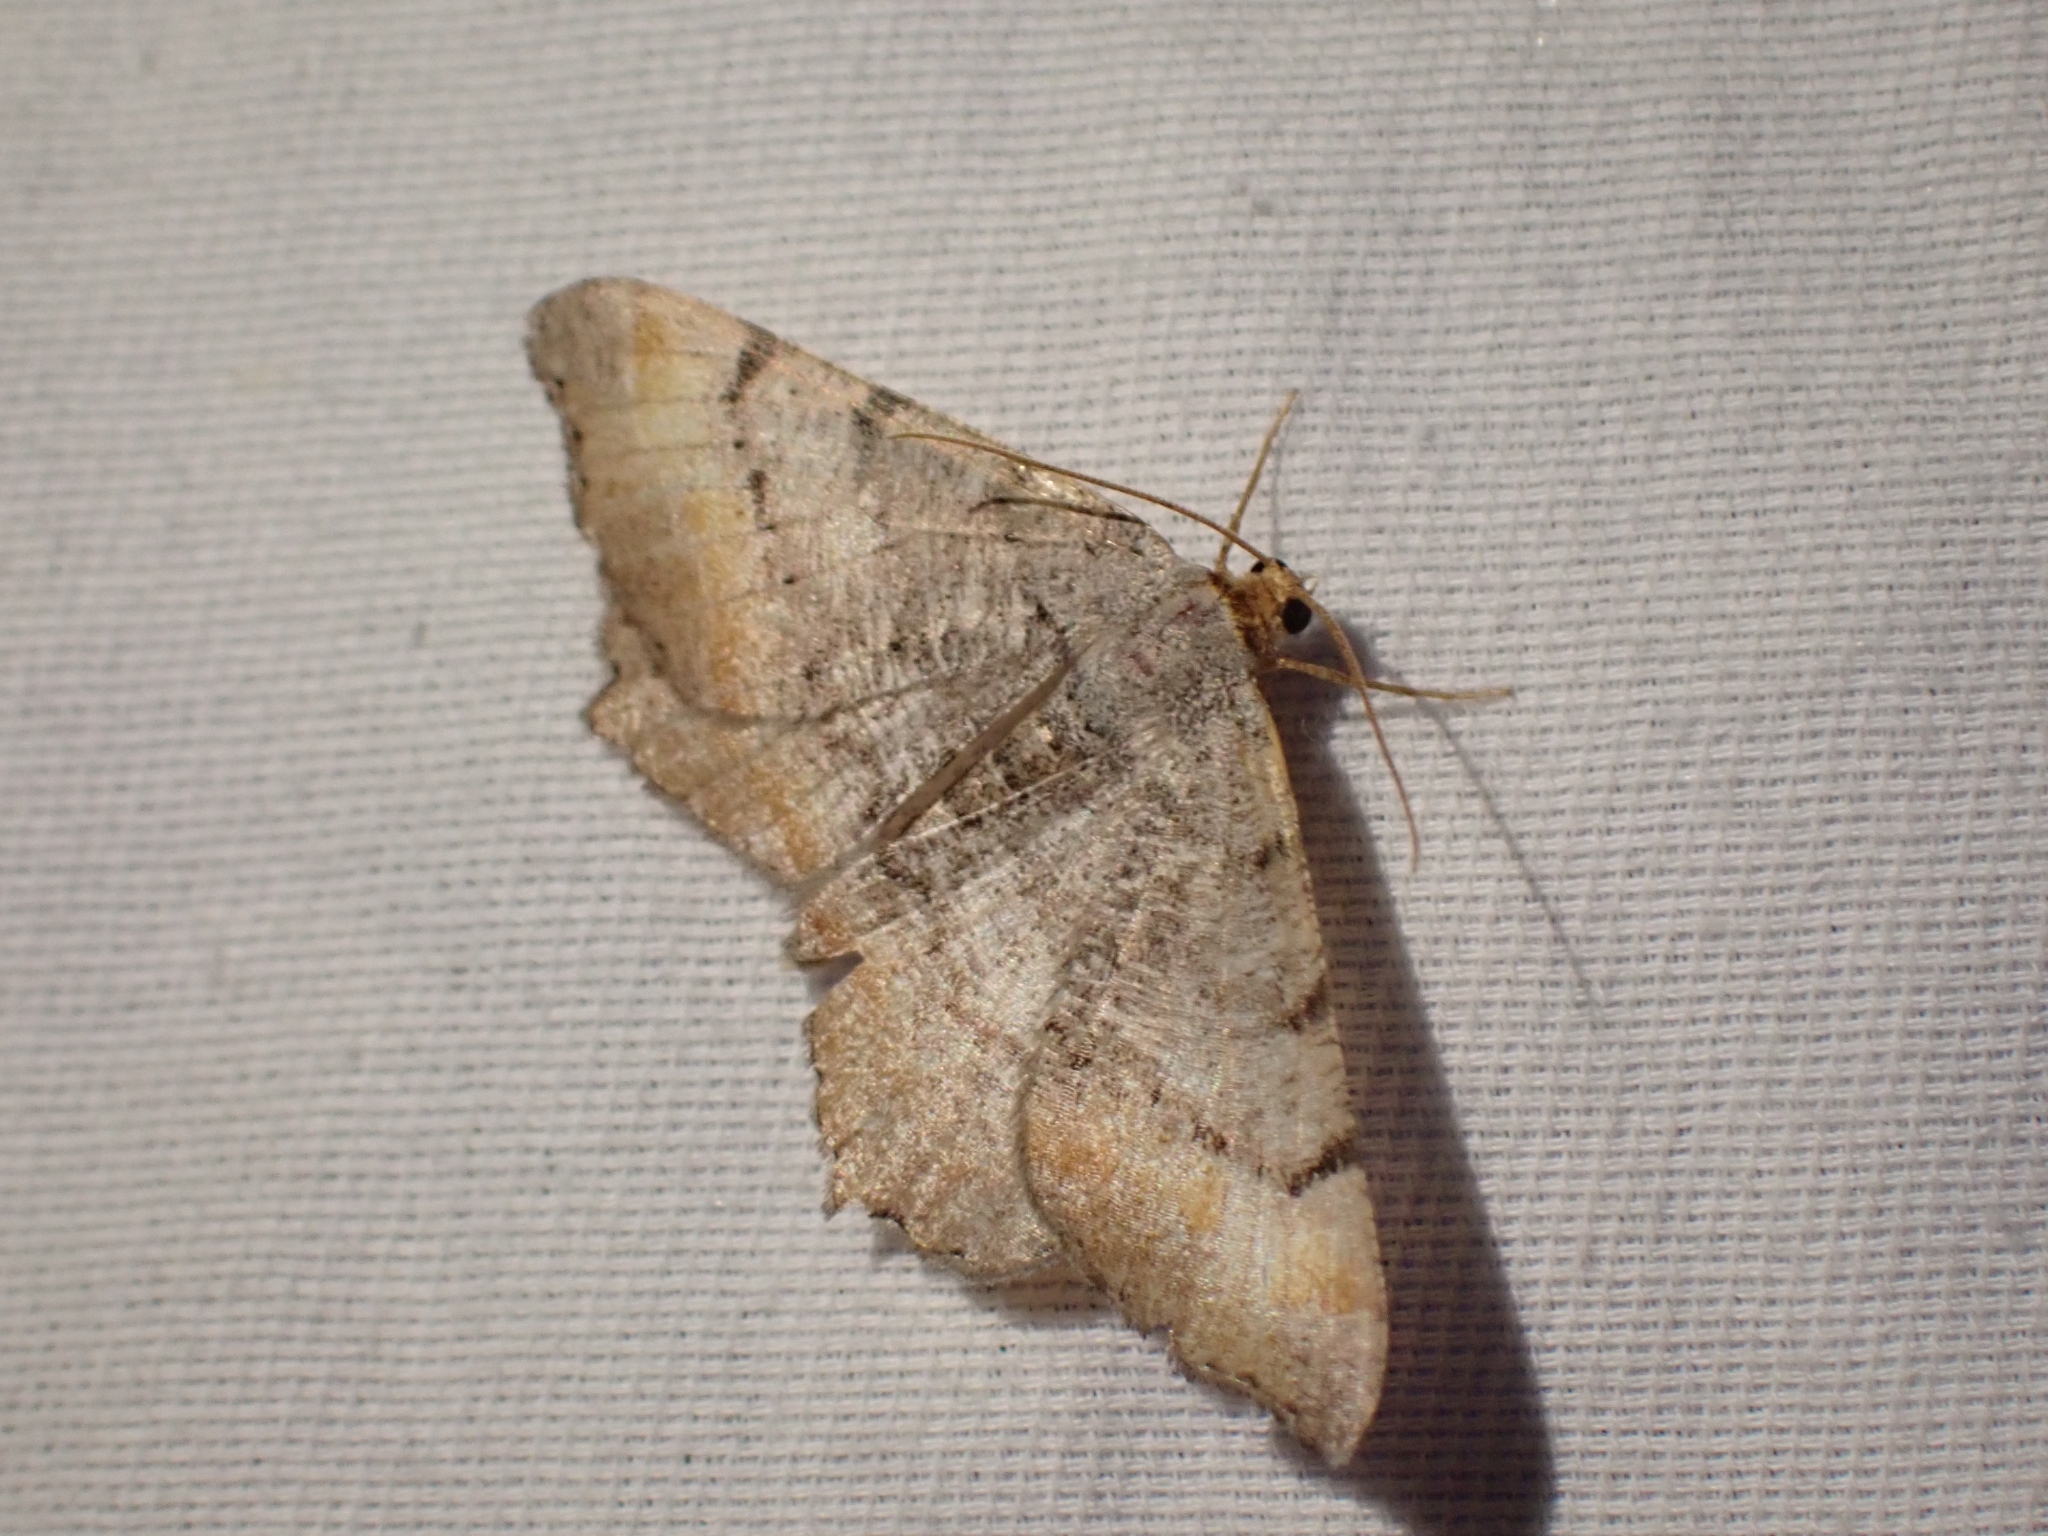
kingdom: Animalia
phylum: Arthropoda
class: Insecta
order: Lepidoptera
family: Geometridae
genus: Macaria
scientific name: Macaria adonis
